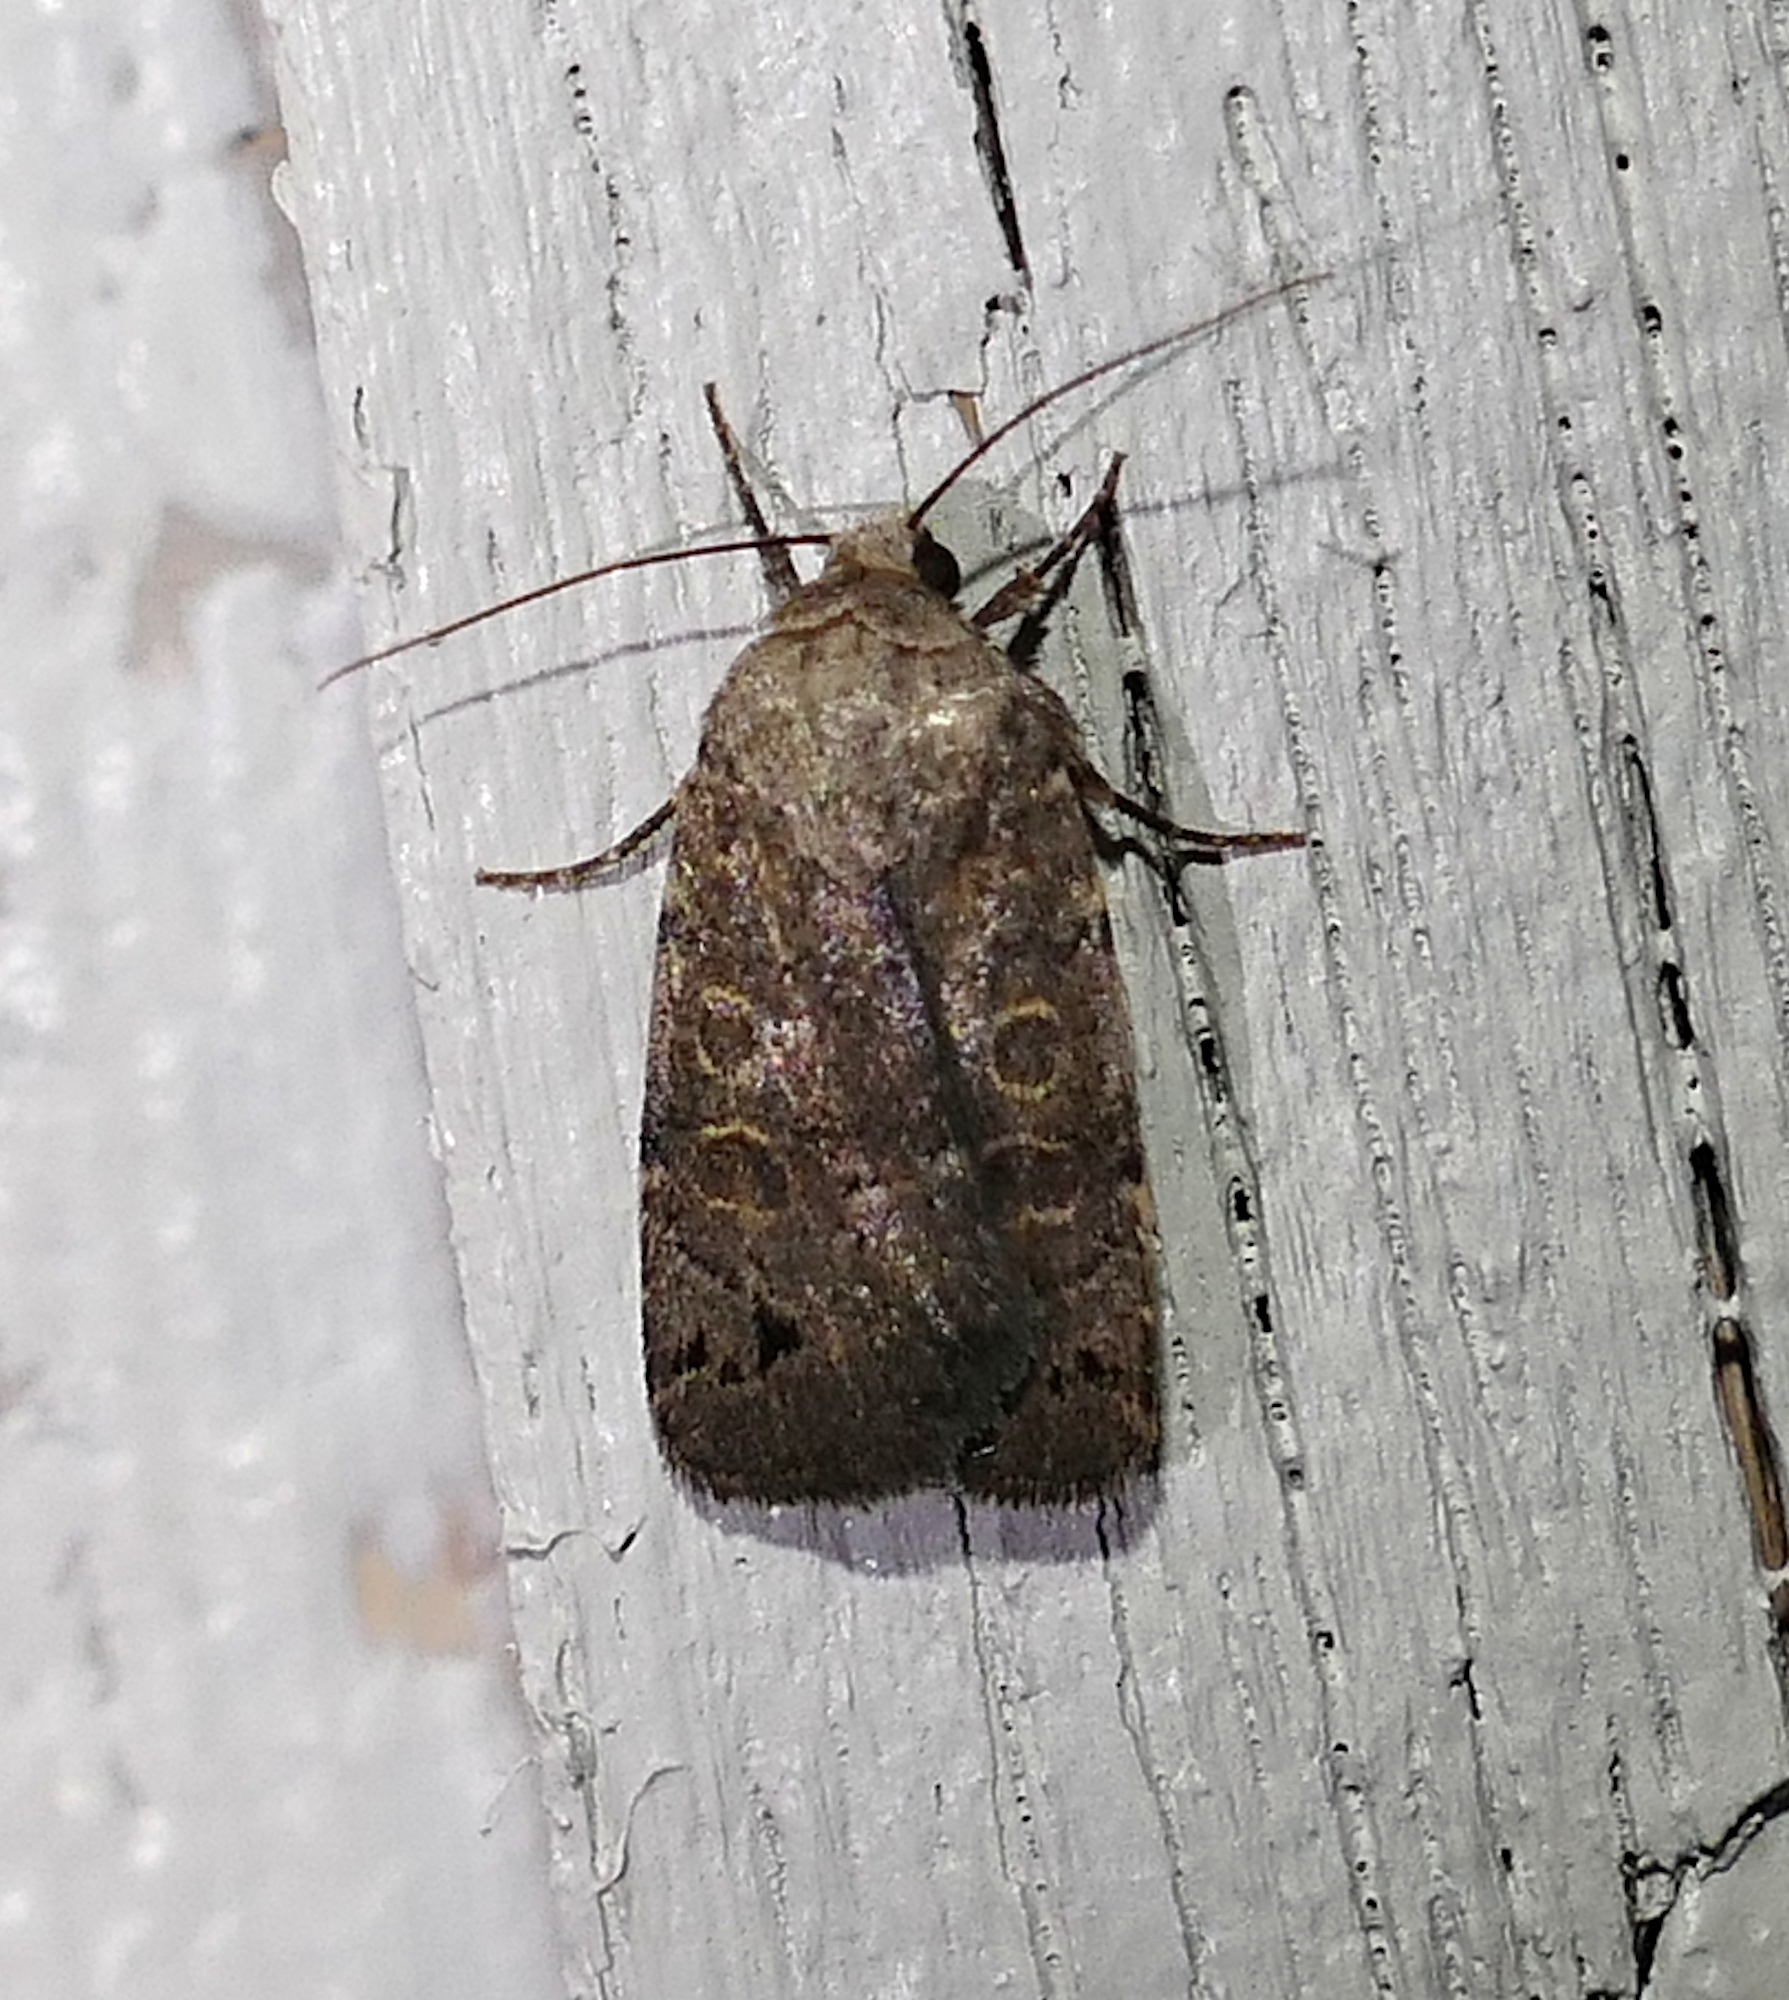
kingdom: Animalia
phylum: Arthropoda
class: Insecta
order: Lepidoptera
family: Noctuidae
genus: Anorthodes
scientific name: Anorthodes triquetra
